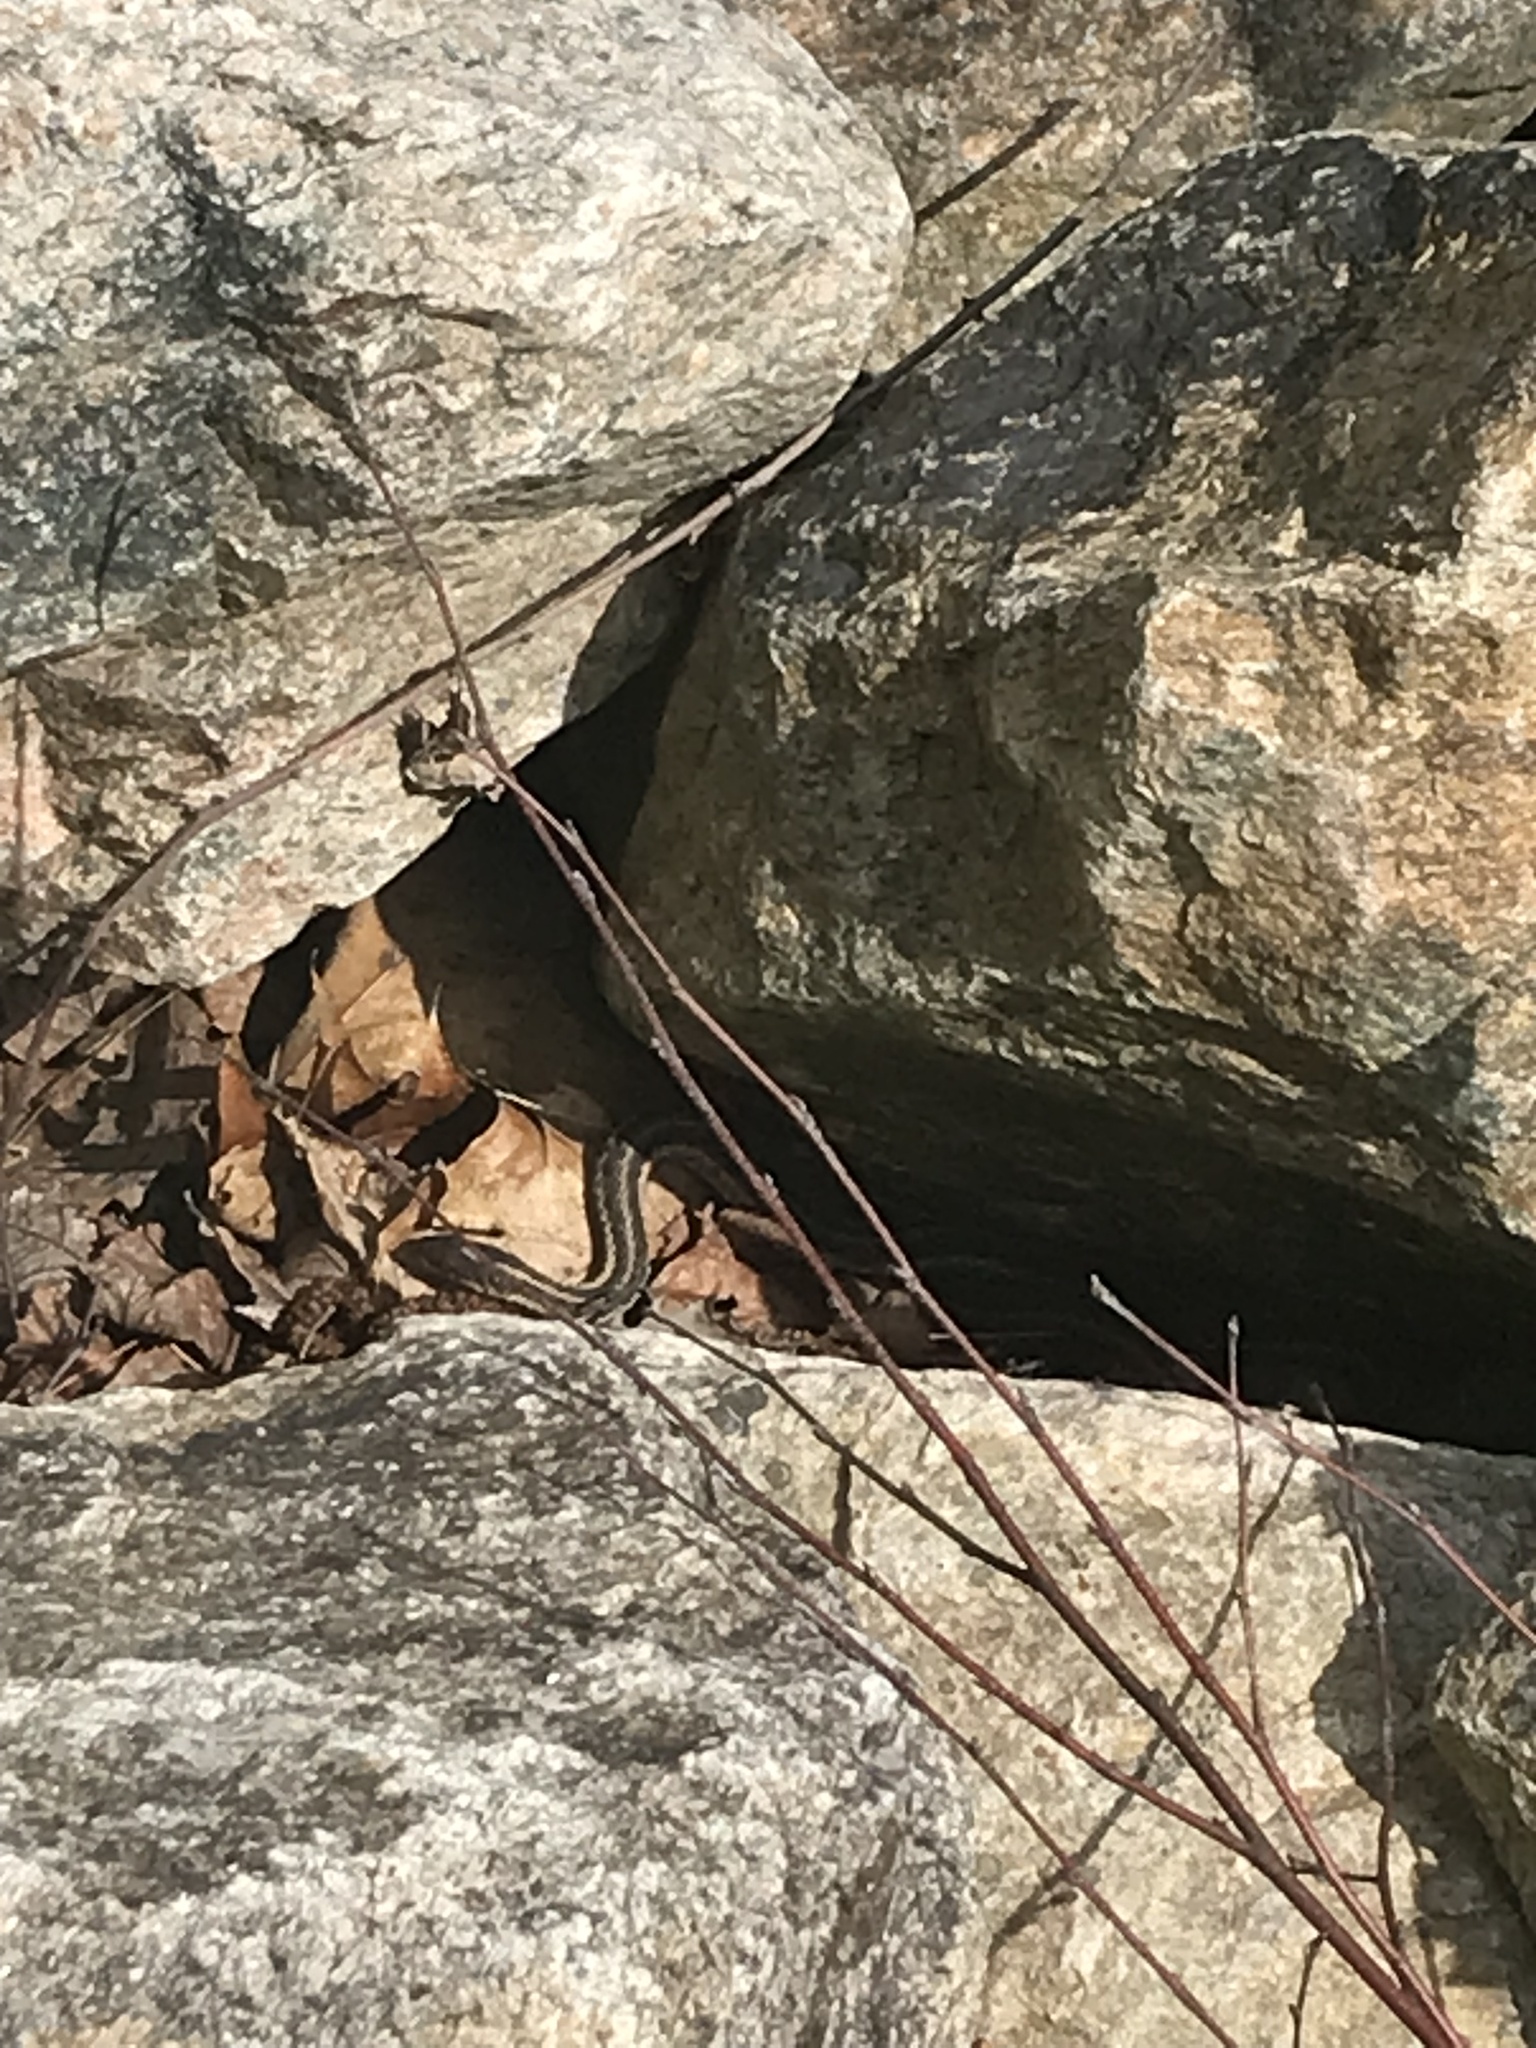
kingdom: Animalia
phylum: Chordata
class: Squamata
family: Colubridae
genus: Thamnophis
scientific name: Thamnophis sirtalis
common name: Common garter snake
